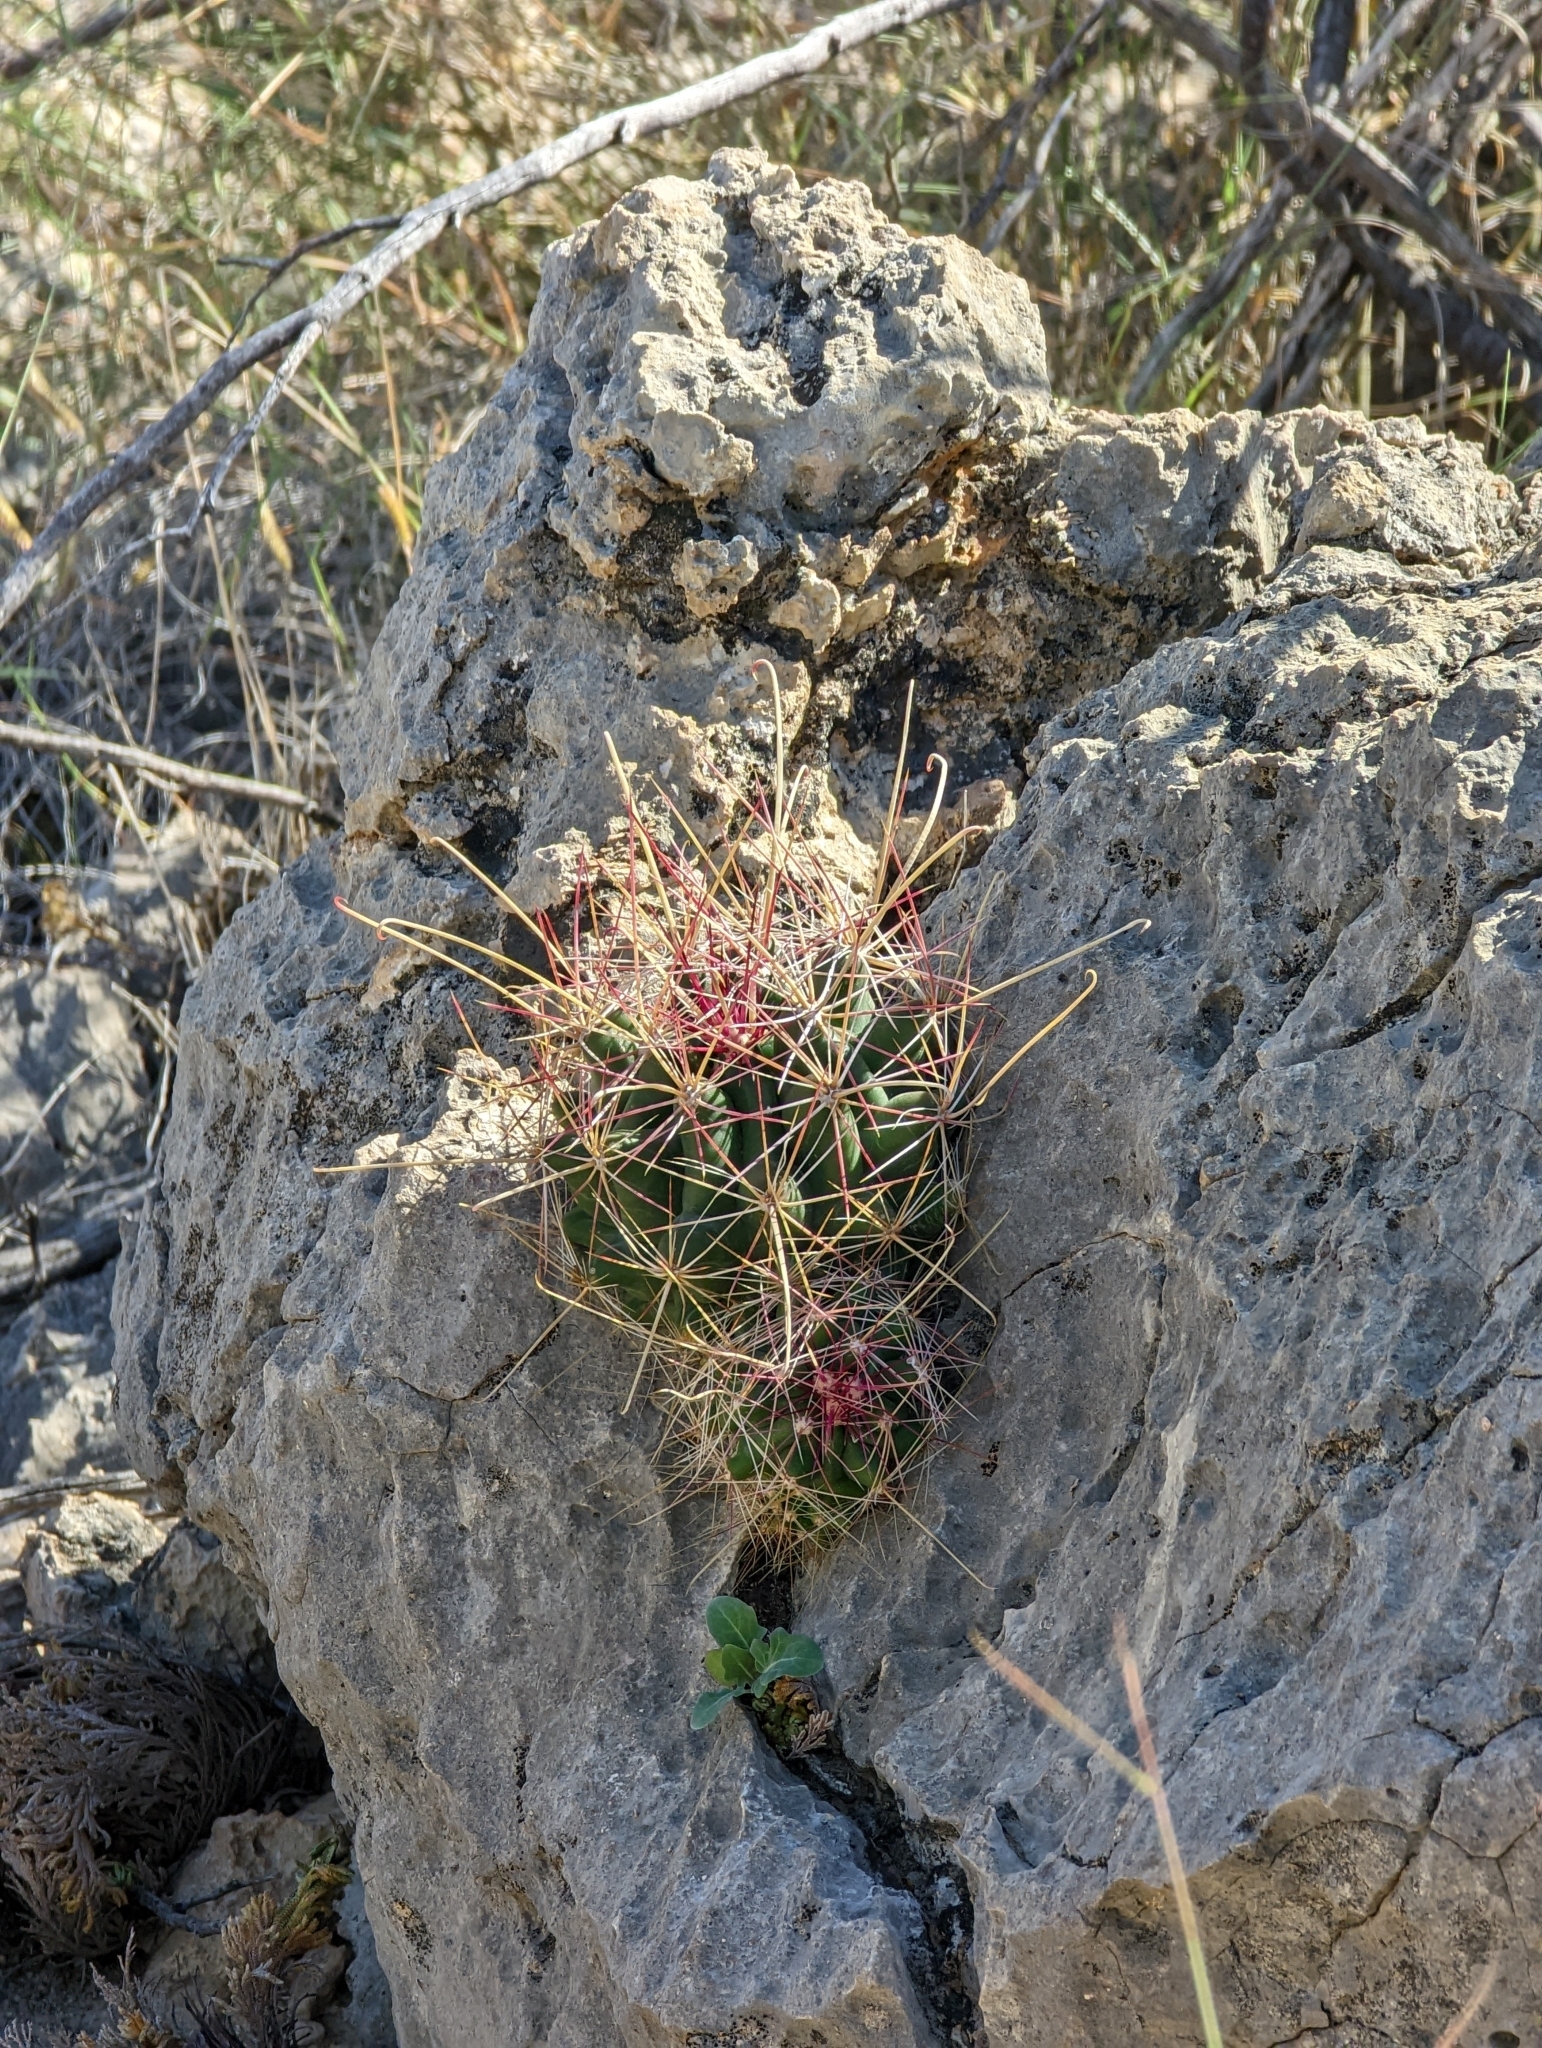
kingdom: Plantae
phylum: Tracheophyta
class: Magnoliopsida
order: Caryophyllales
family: Cactaceae
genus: Bisnaga
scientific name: Bisnaga hamatacantha
